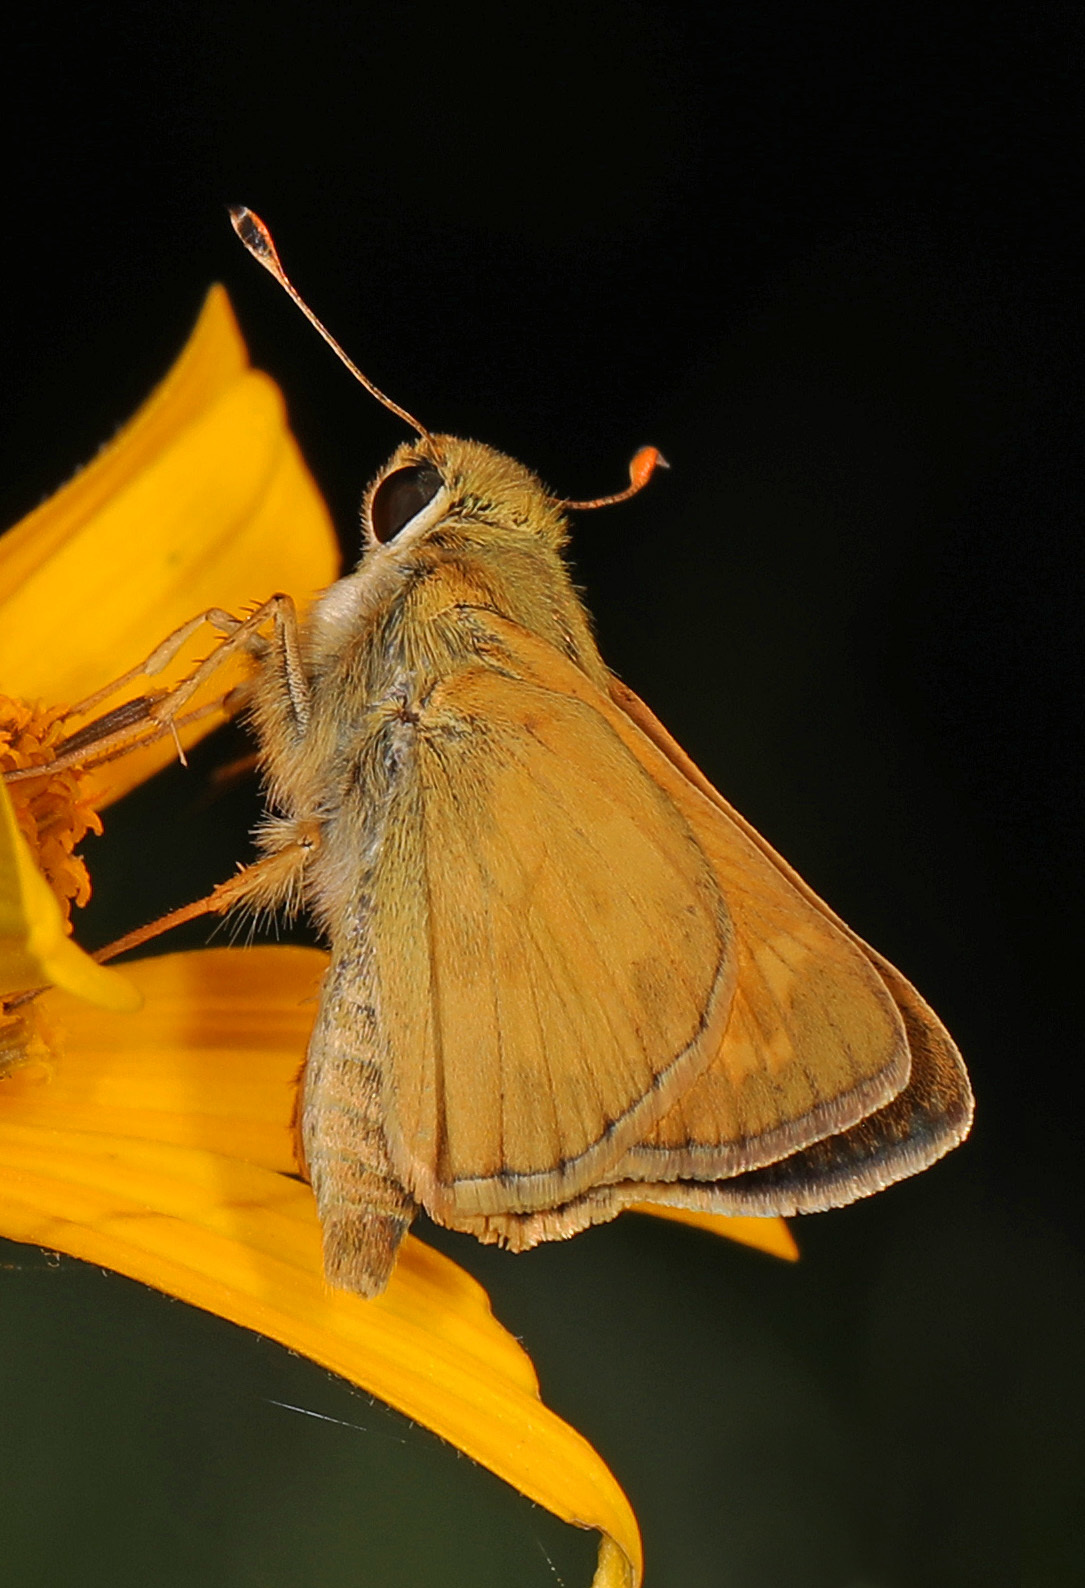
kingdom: Animalia
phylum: Arthropoda
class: Insecta
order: Lepidoptera
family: Hesperiidae
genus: Atalopedes
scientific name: Atalopedes
